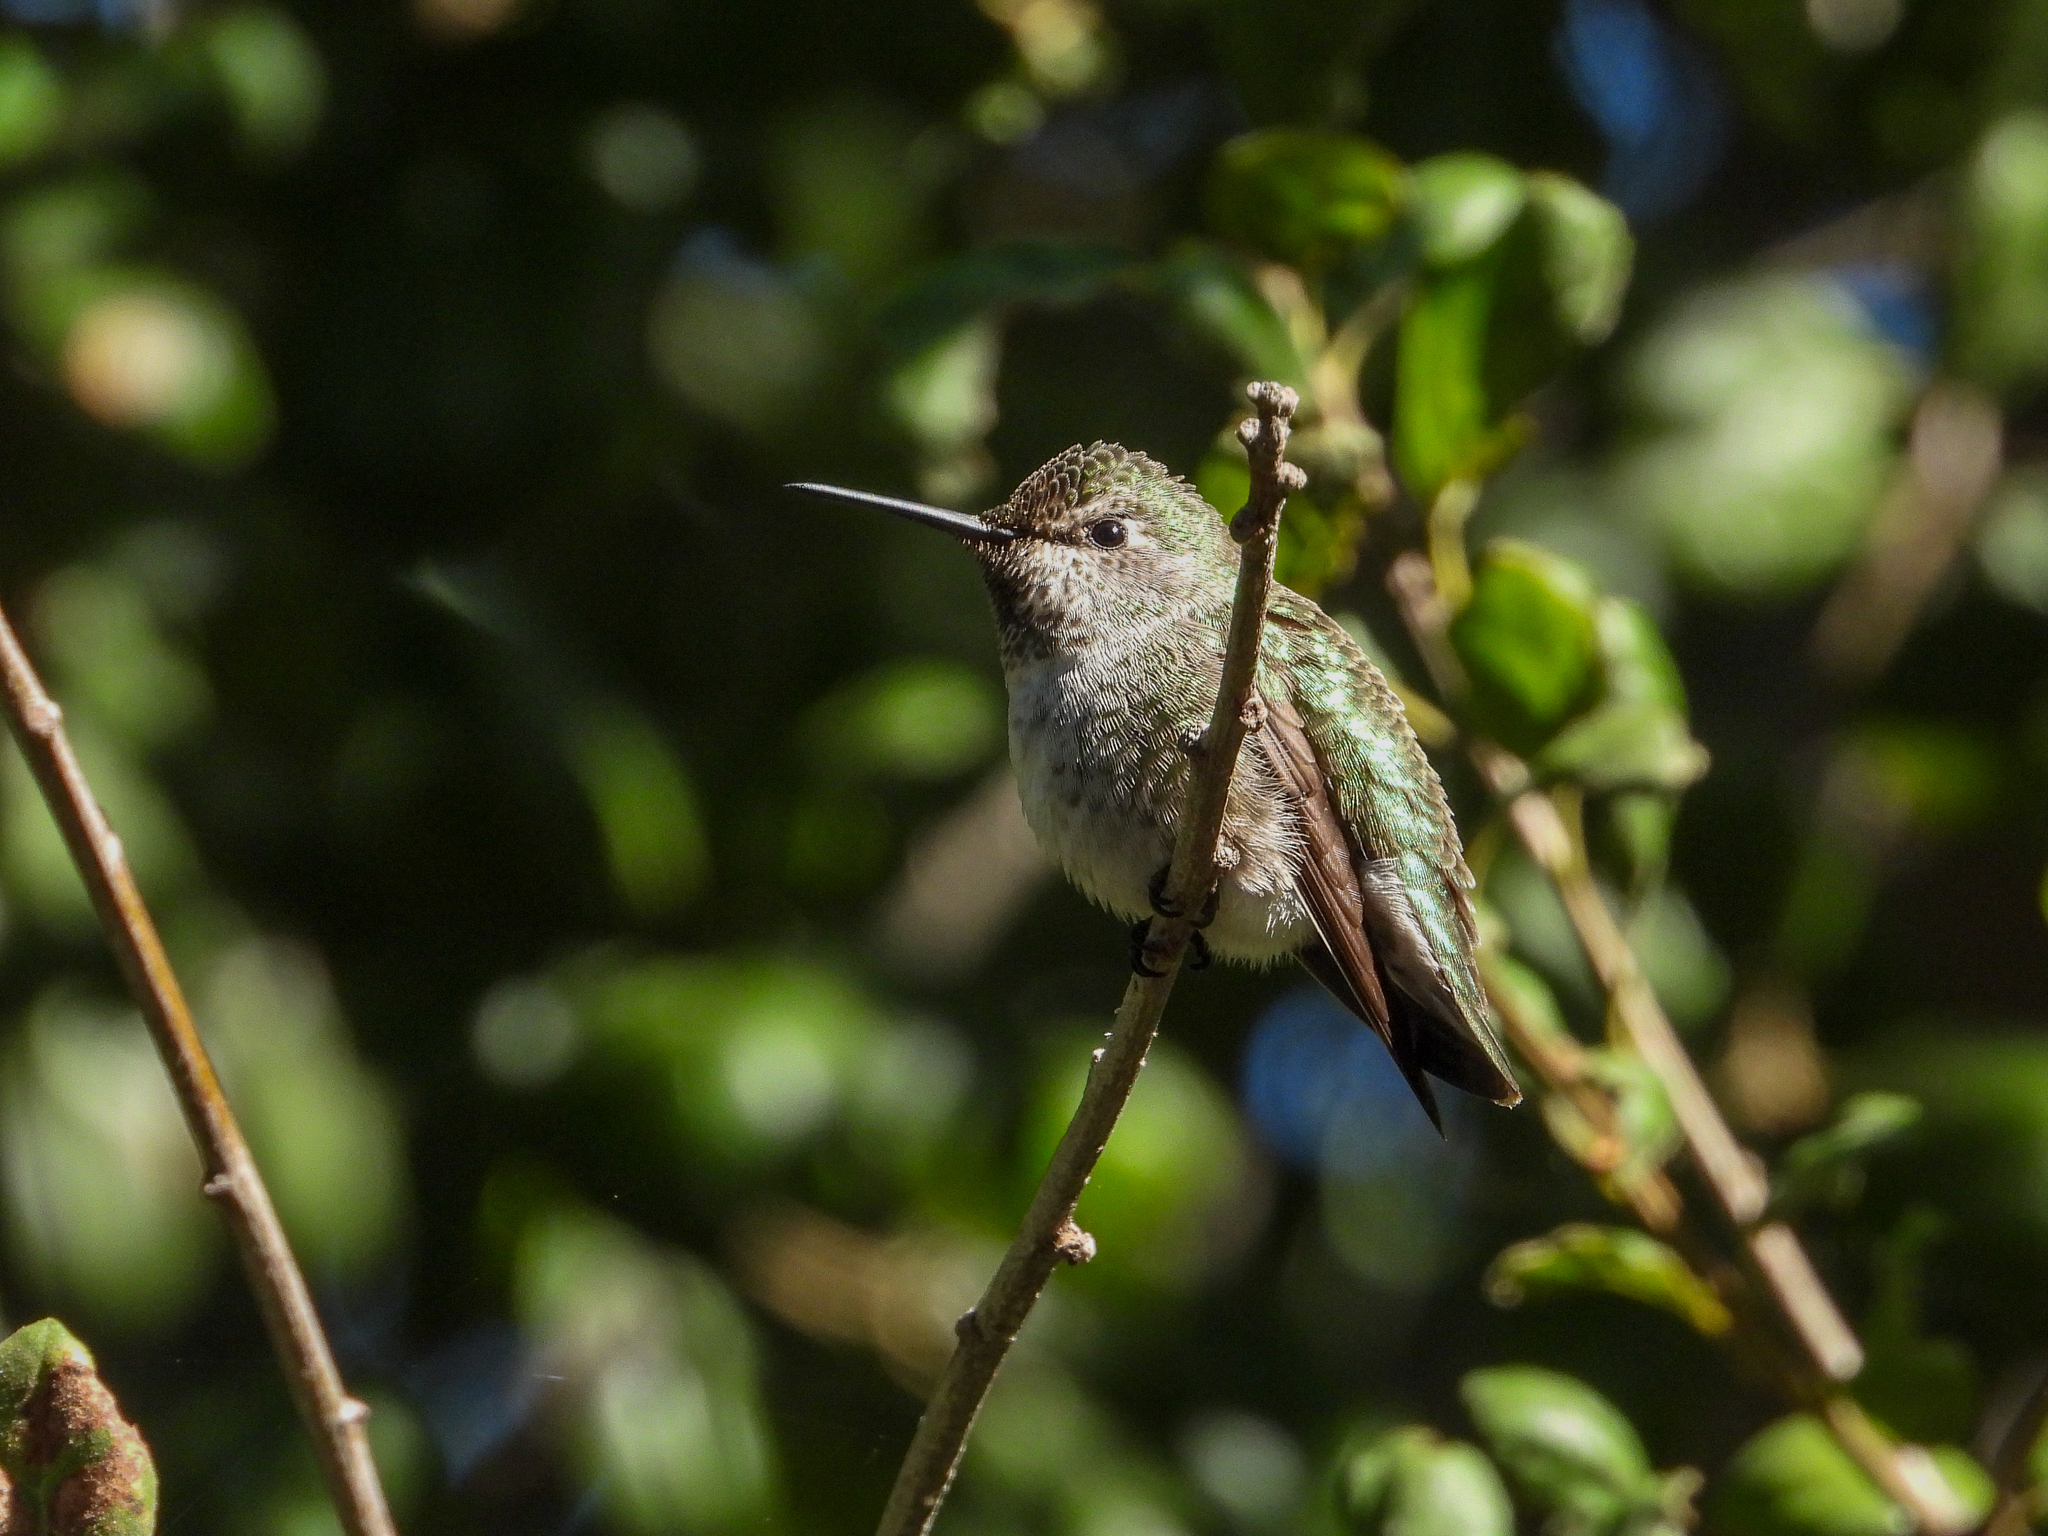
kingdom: Animalia
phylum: Chordata
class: Aves
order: Apodiformes
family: Trochilidae
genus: Calypte
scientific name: Calypte anna
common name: Anna's hummingbird
